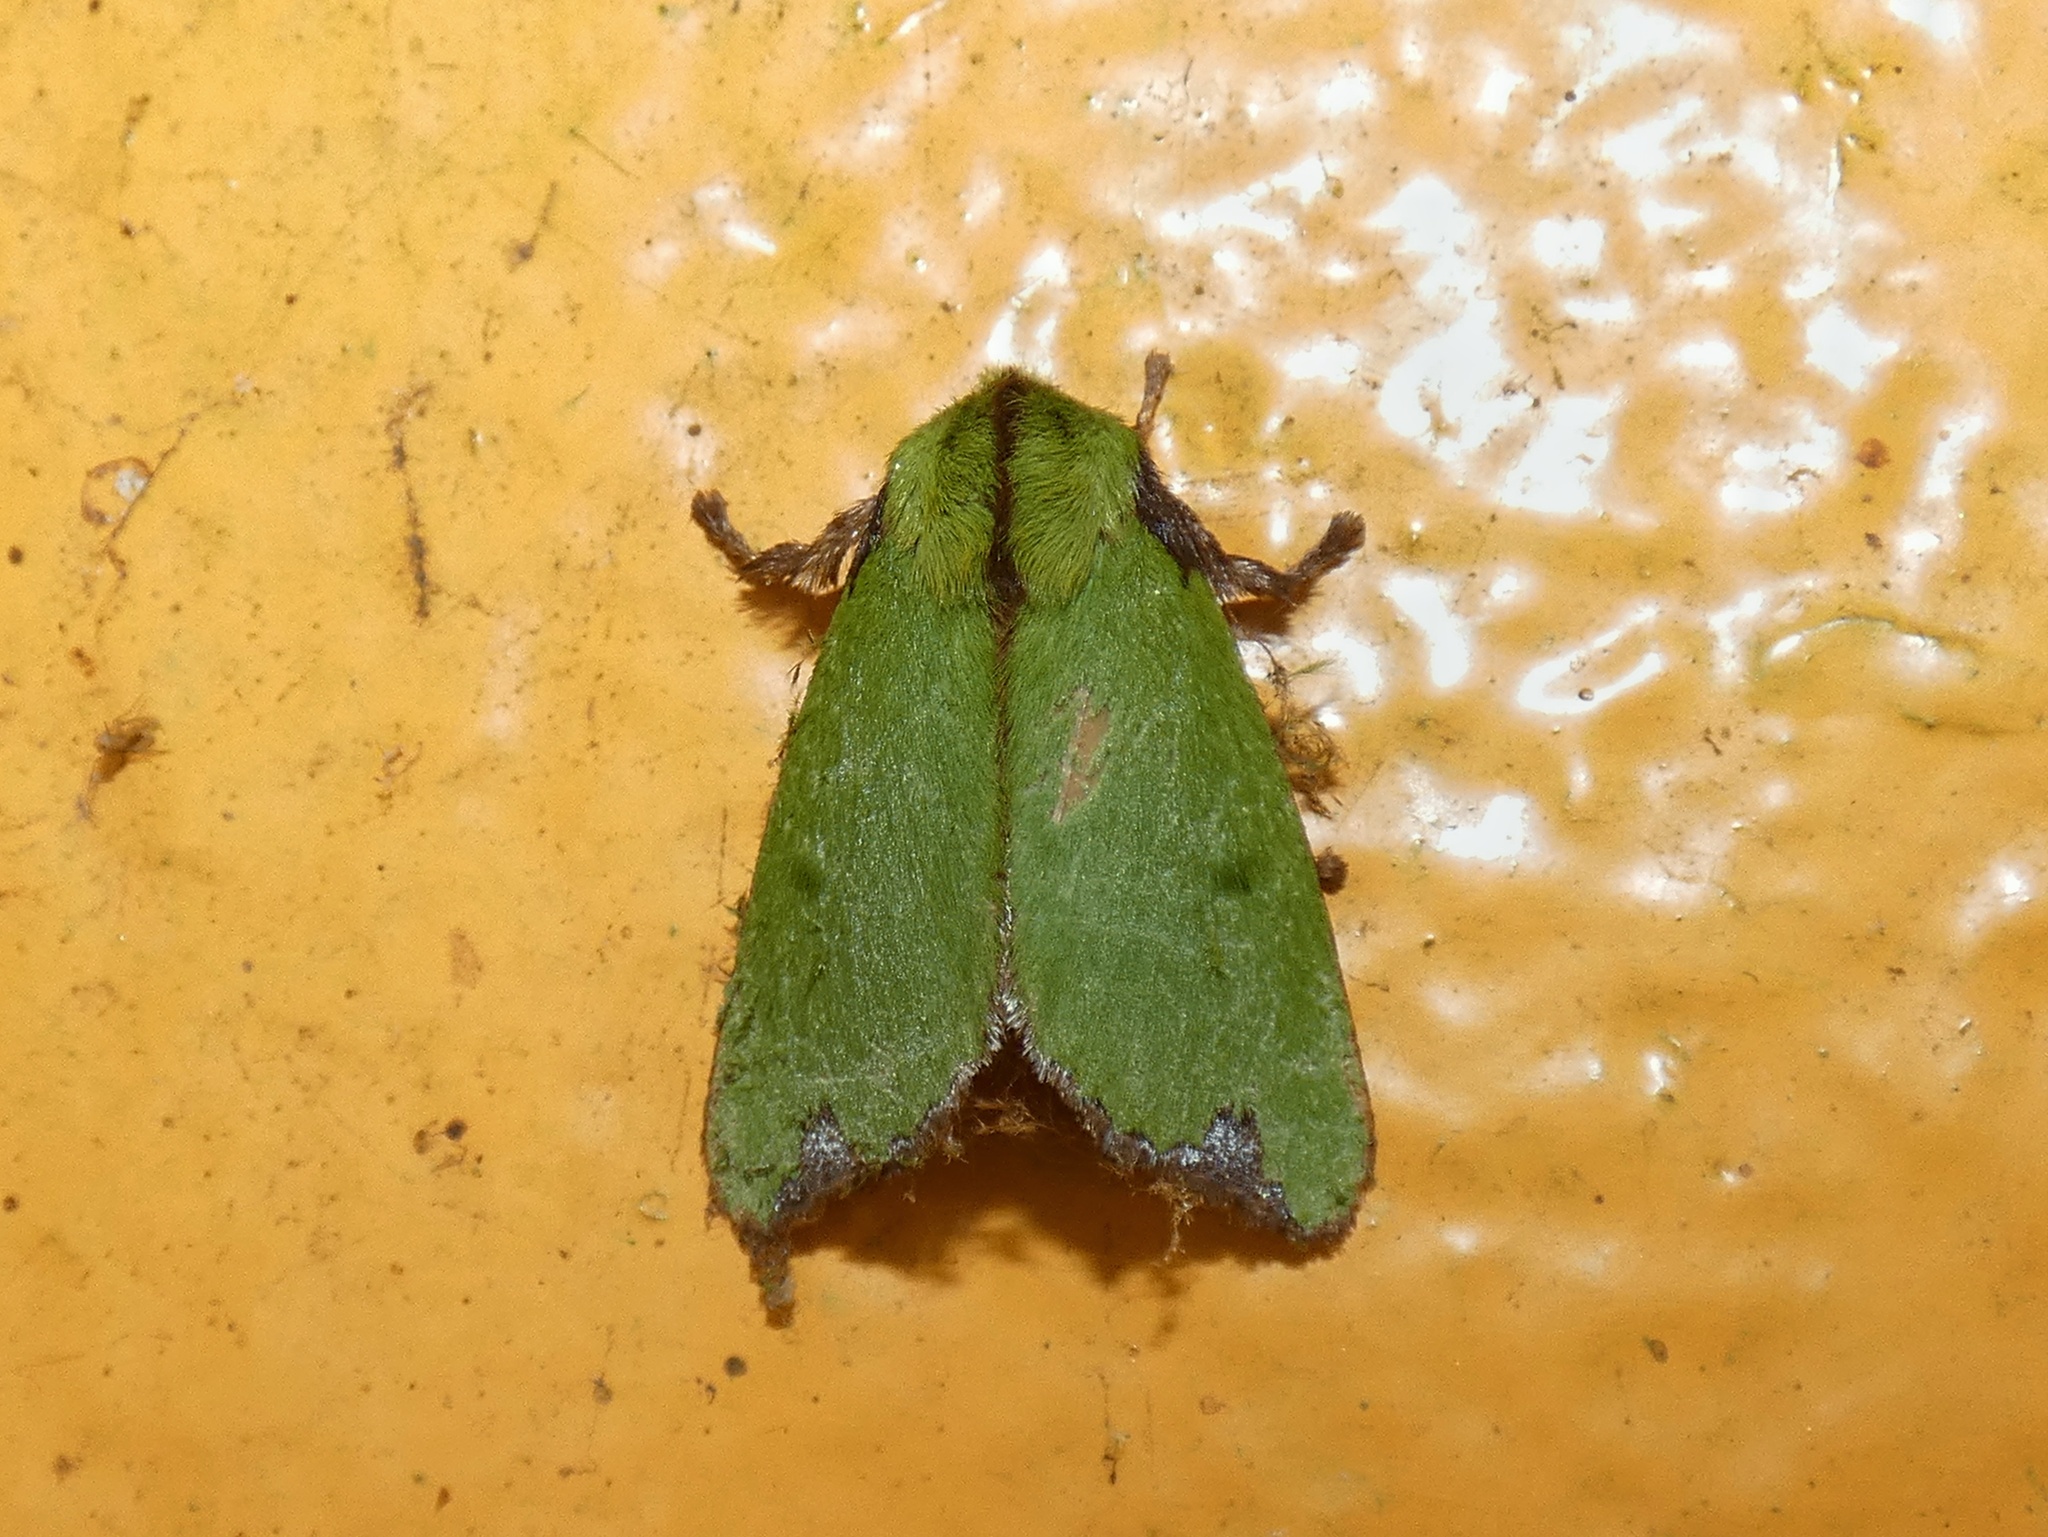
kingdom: Animalia
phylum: Arthropoda
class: Insecta
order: Lepidoptera
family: Limacodidae
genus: Parasa
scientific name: Parasa constricta
